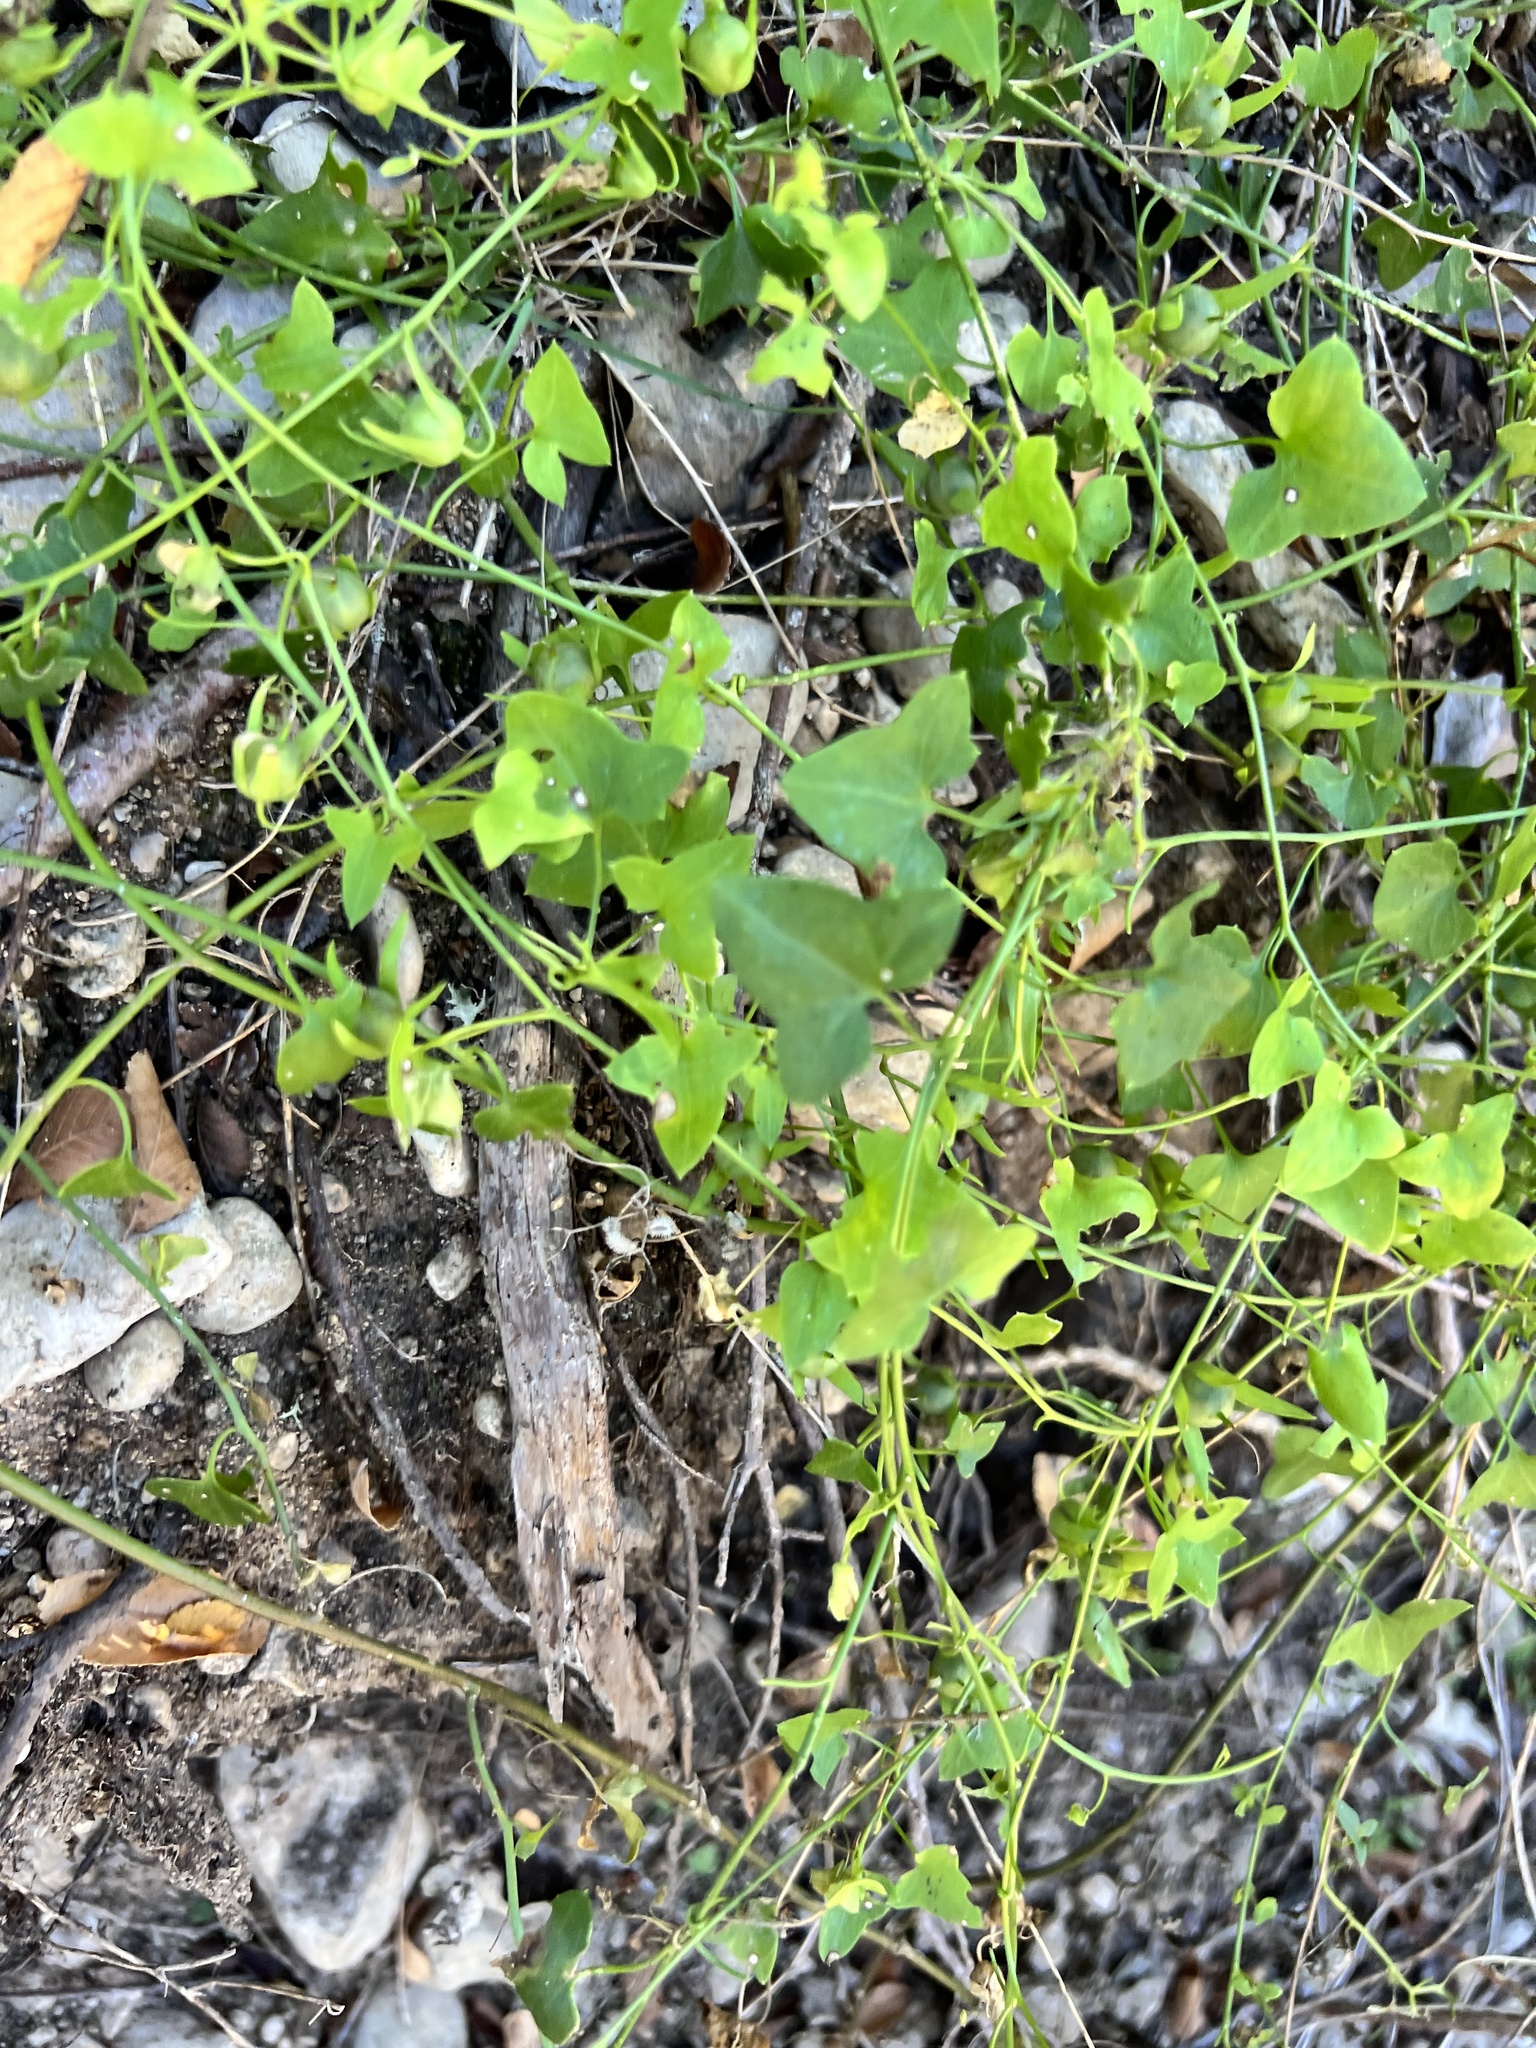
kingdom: Plantae
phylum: Tracheophyta
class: Magnoliopsida
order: Lamiales
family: Plantaginaceae
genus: Maurandella
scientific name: Maurandella antirrhiniflora
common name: Violet twining-snapdragon
